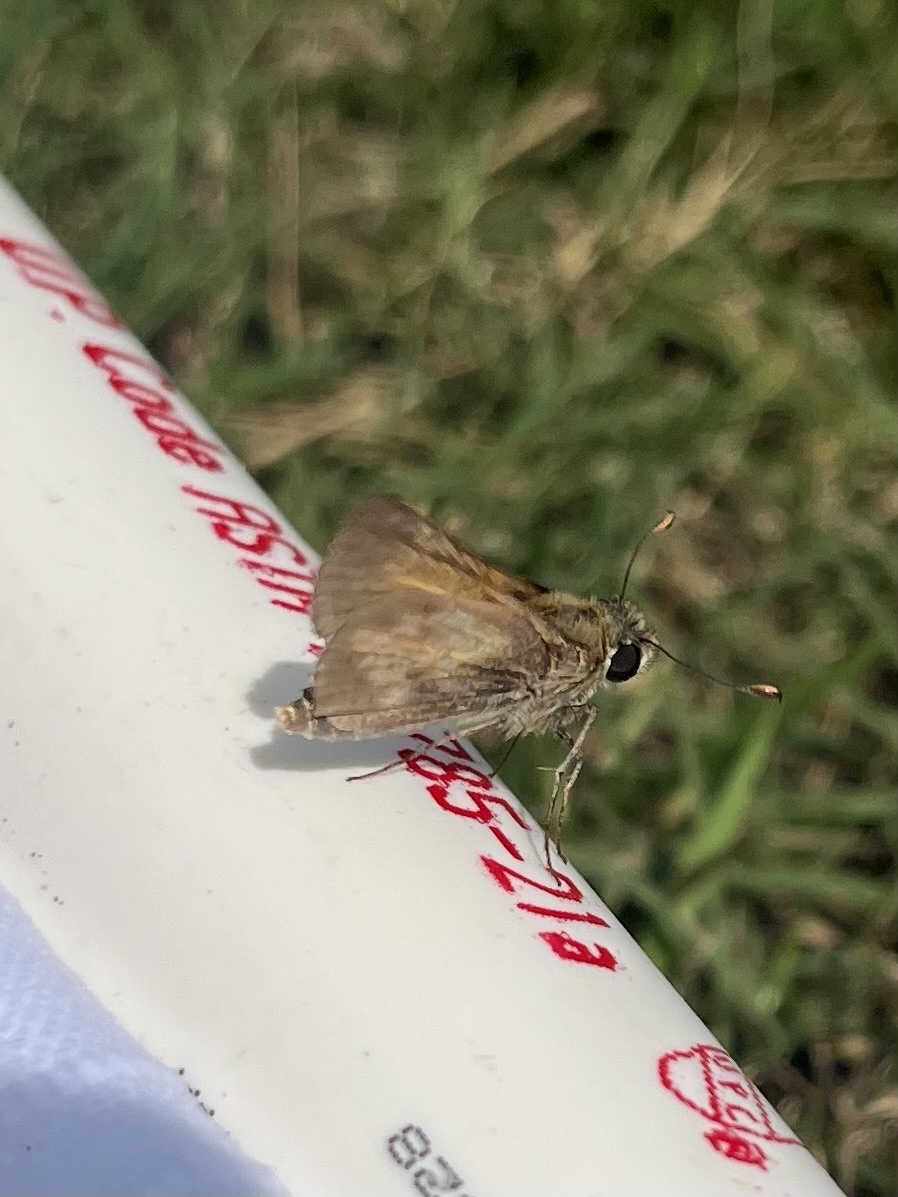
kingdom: Animalia
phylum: Arthropoda
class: Insecta
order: Lepidoptera
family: Hesperiidae
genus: Atalopedes
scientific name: Atalopedes
